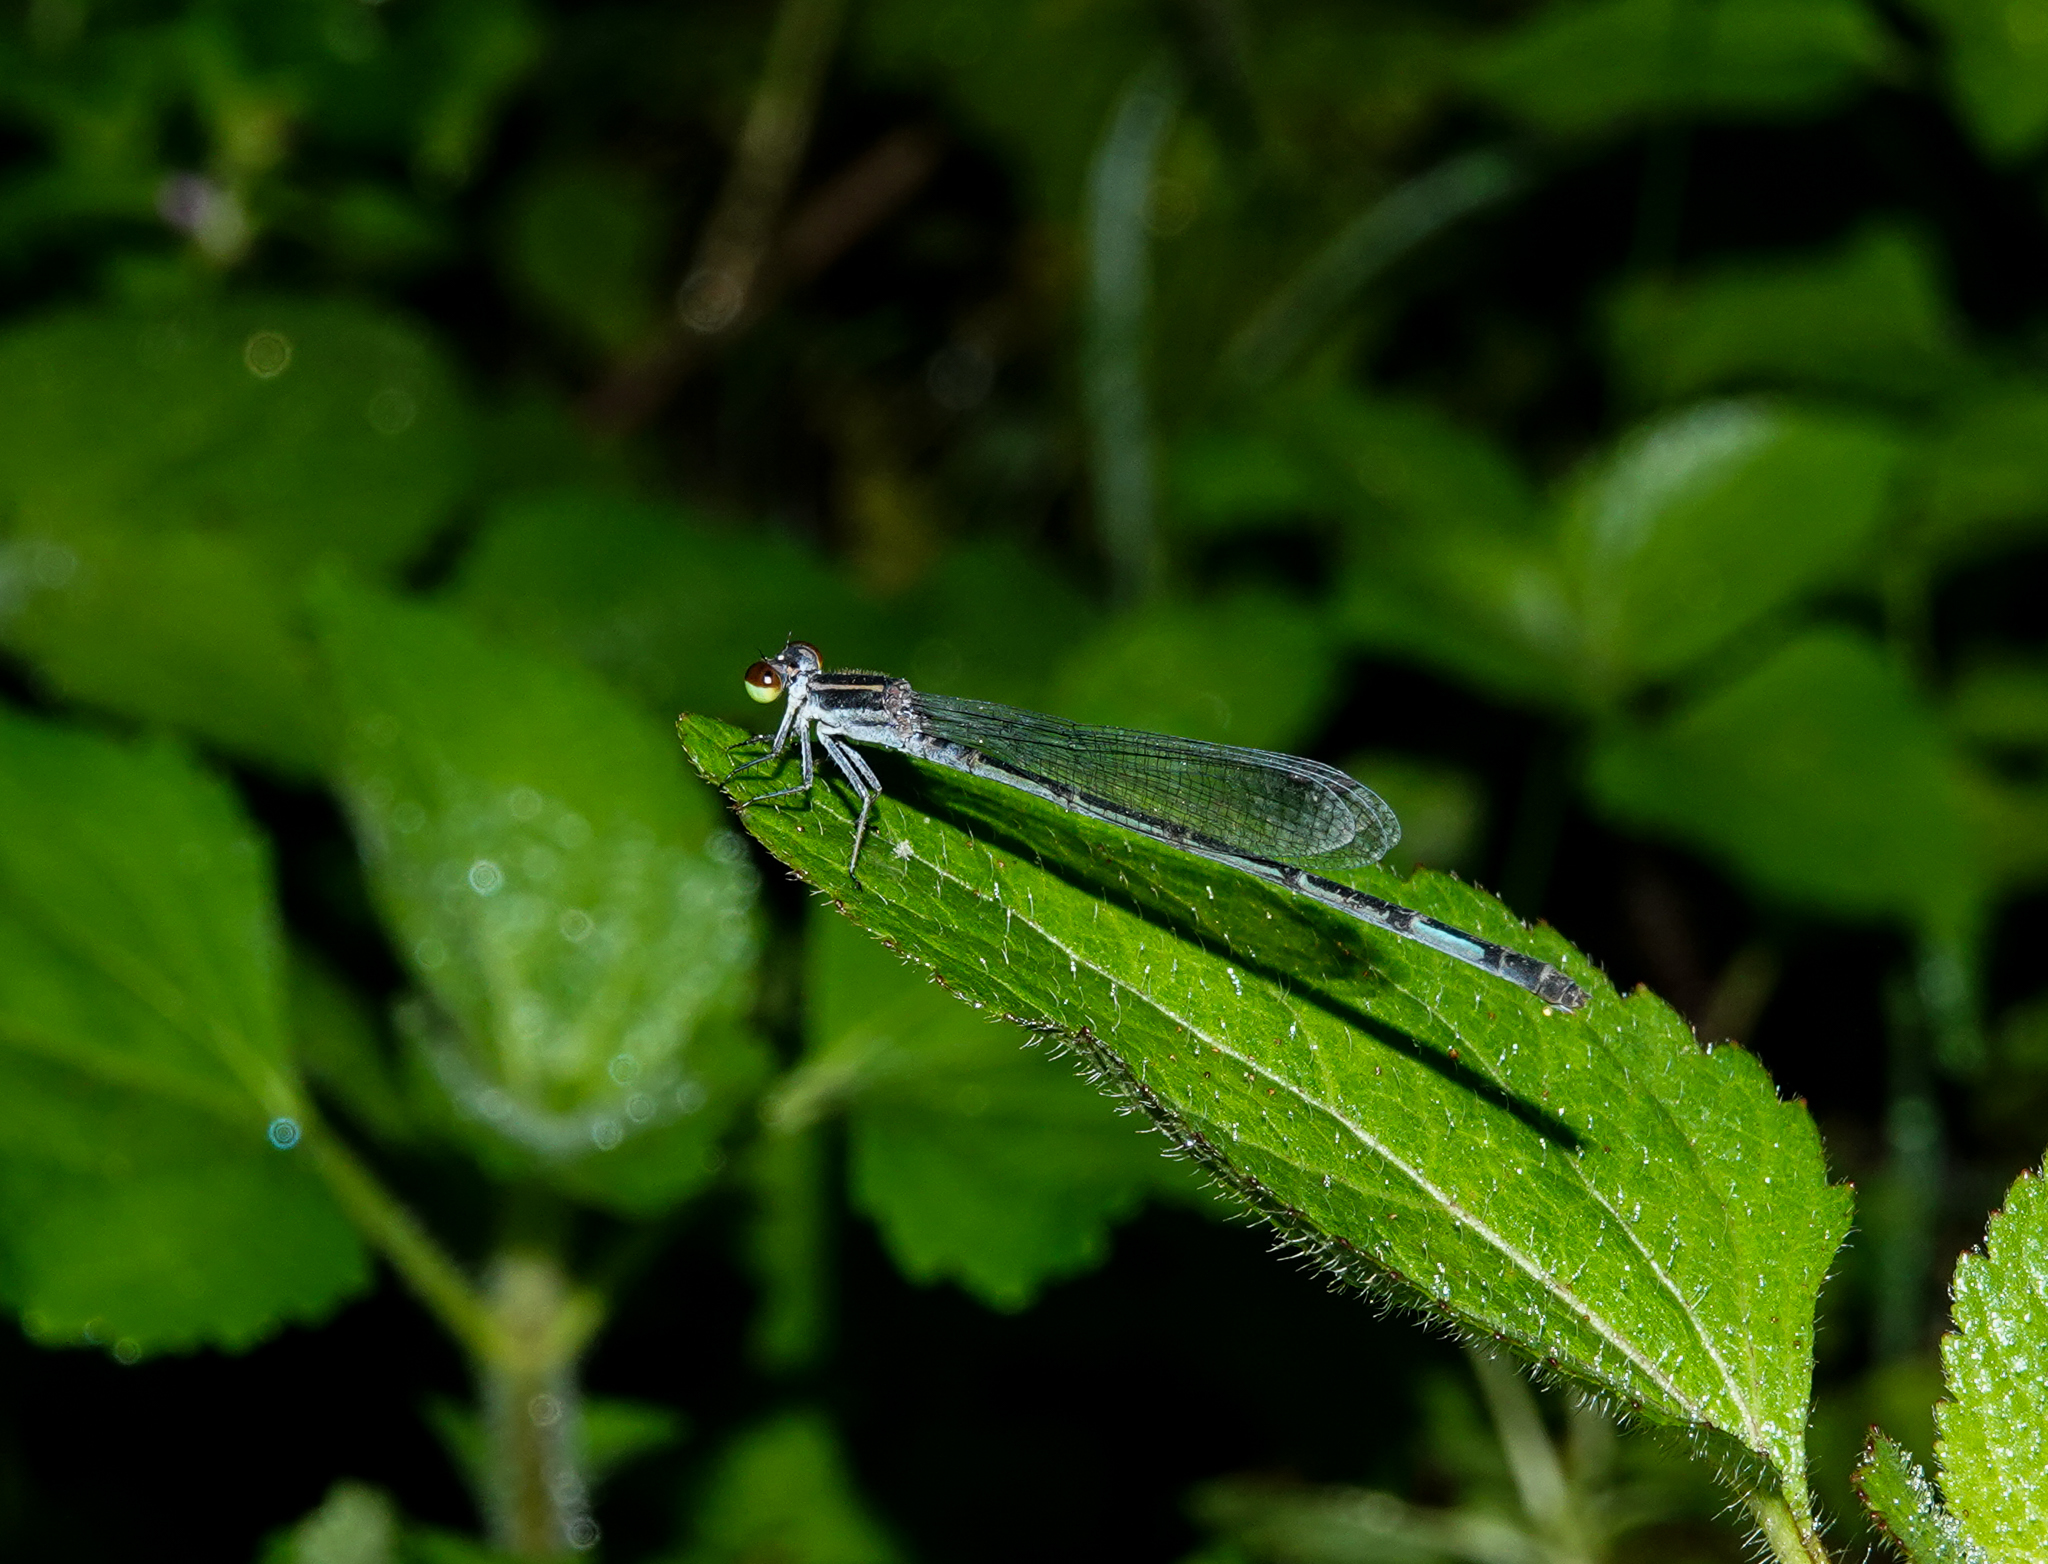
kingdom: Animalia
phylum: Arthropoda
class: Insecta
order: Odonata
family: Coenagrionidae
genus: Mortonagrion
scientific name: Mortonagrion aborense
